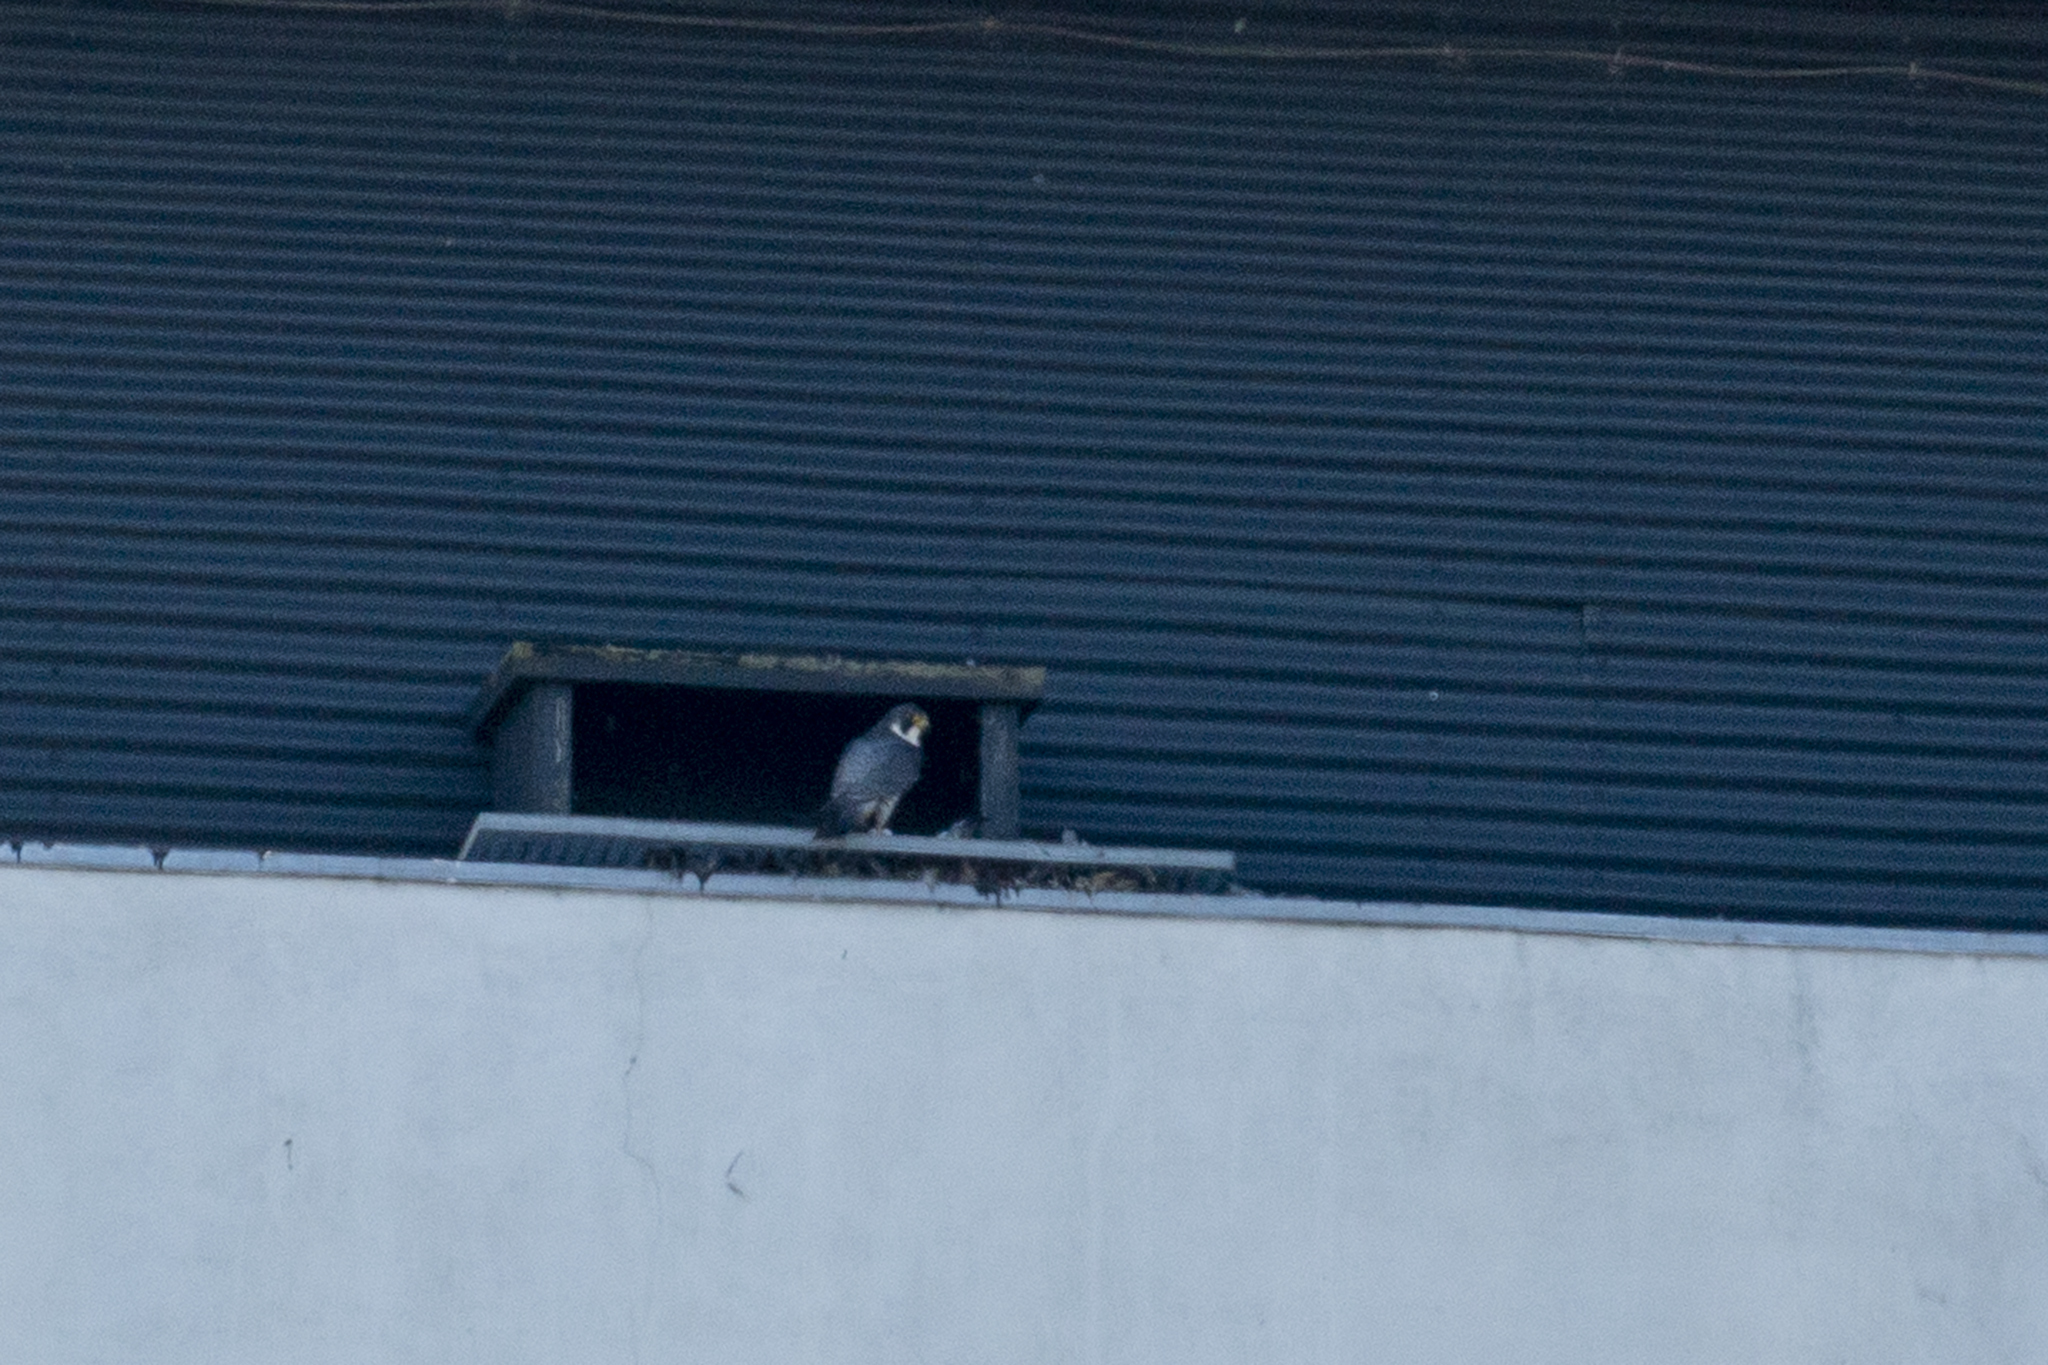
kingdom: Animalia
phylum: Chordata
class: Aves
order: Falconiformes
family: Falconidae
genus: Falco
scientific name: Falco peregrinus
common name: Peregrine falcon
